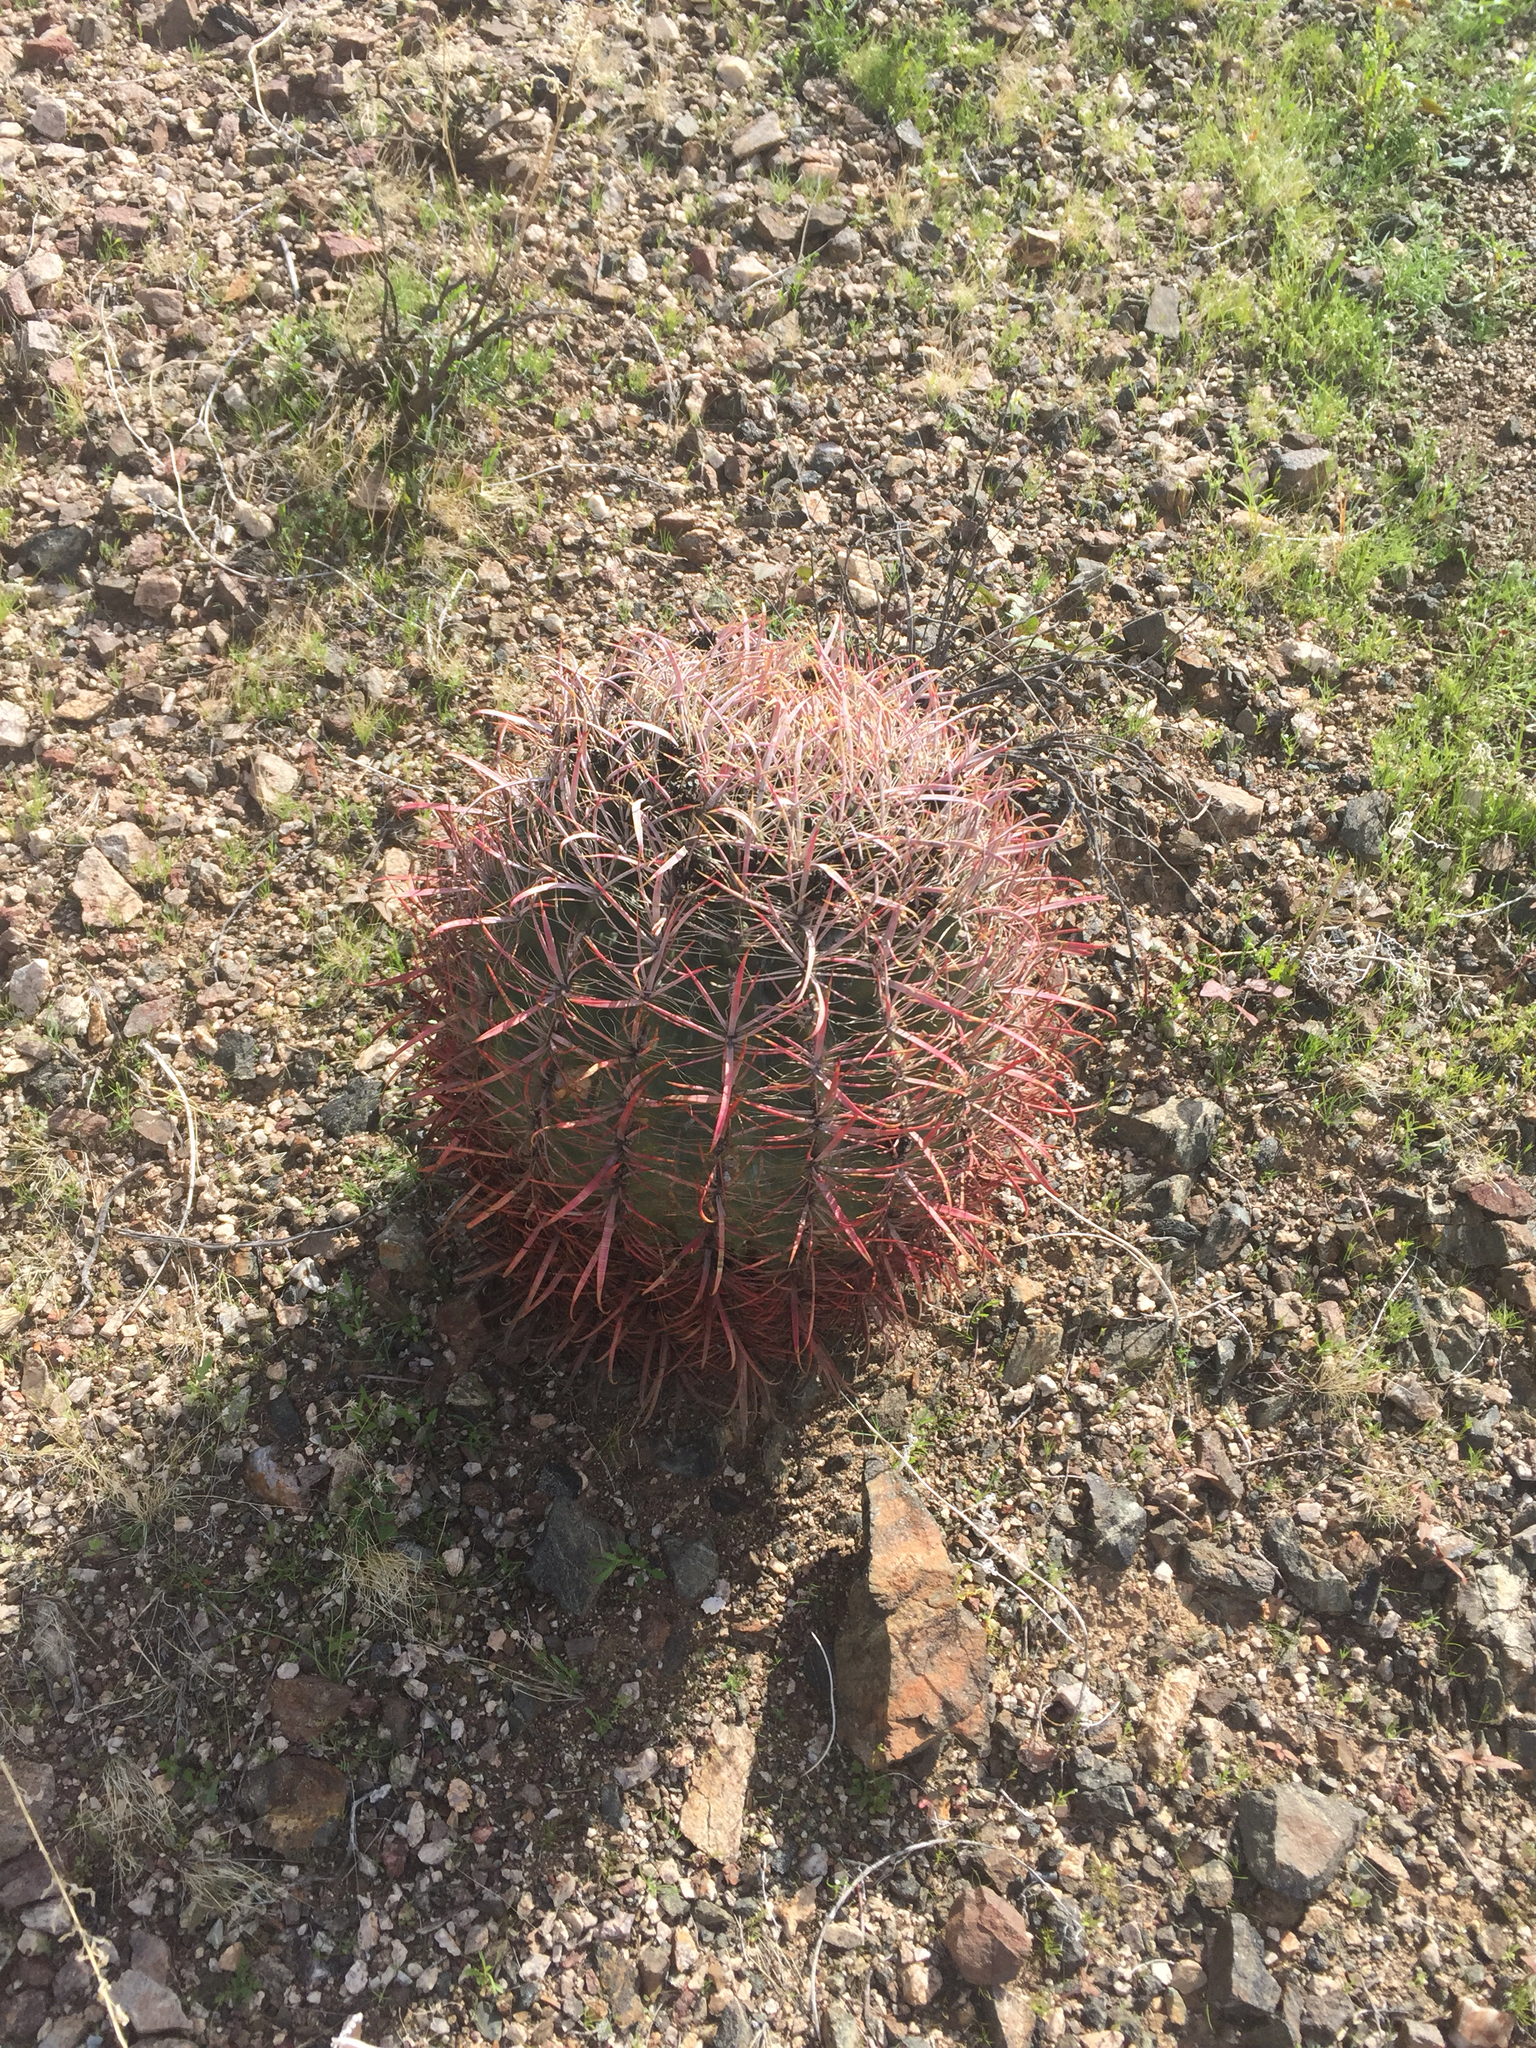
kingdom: Plantae
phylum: Tracheophyta
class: Magnoliopsida
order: Caryophyllales
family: Cactaceae
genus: Ferocactus
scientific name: Ferocactus cylindraceus
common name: California barrel cactus
